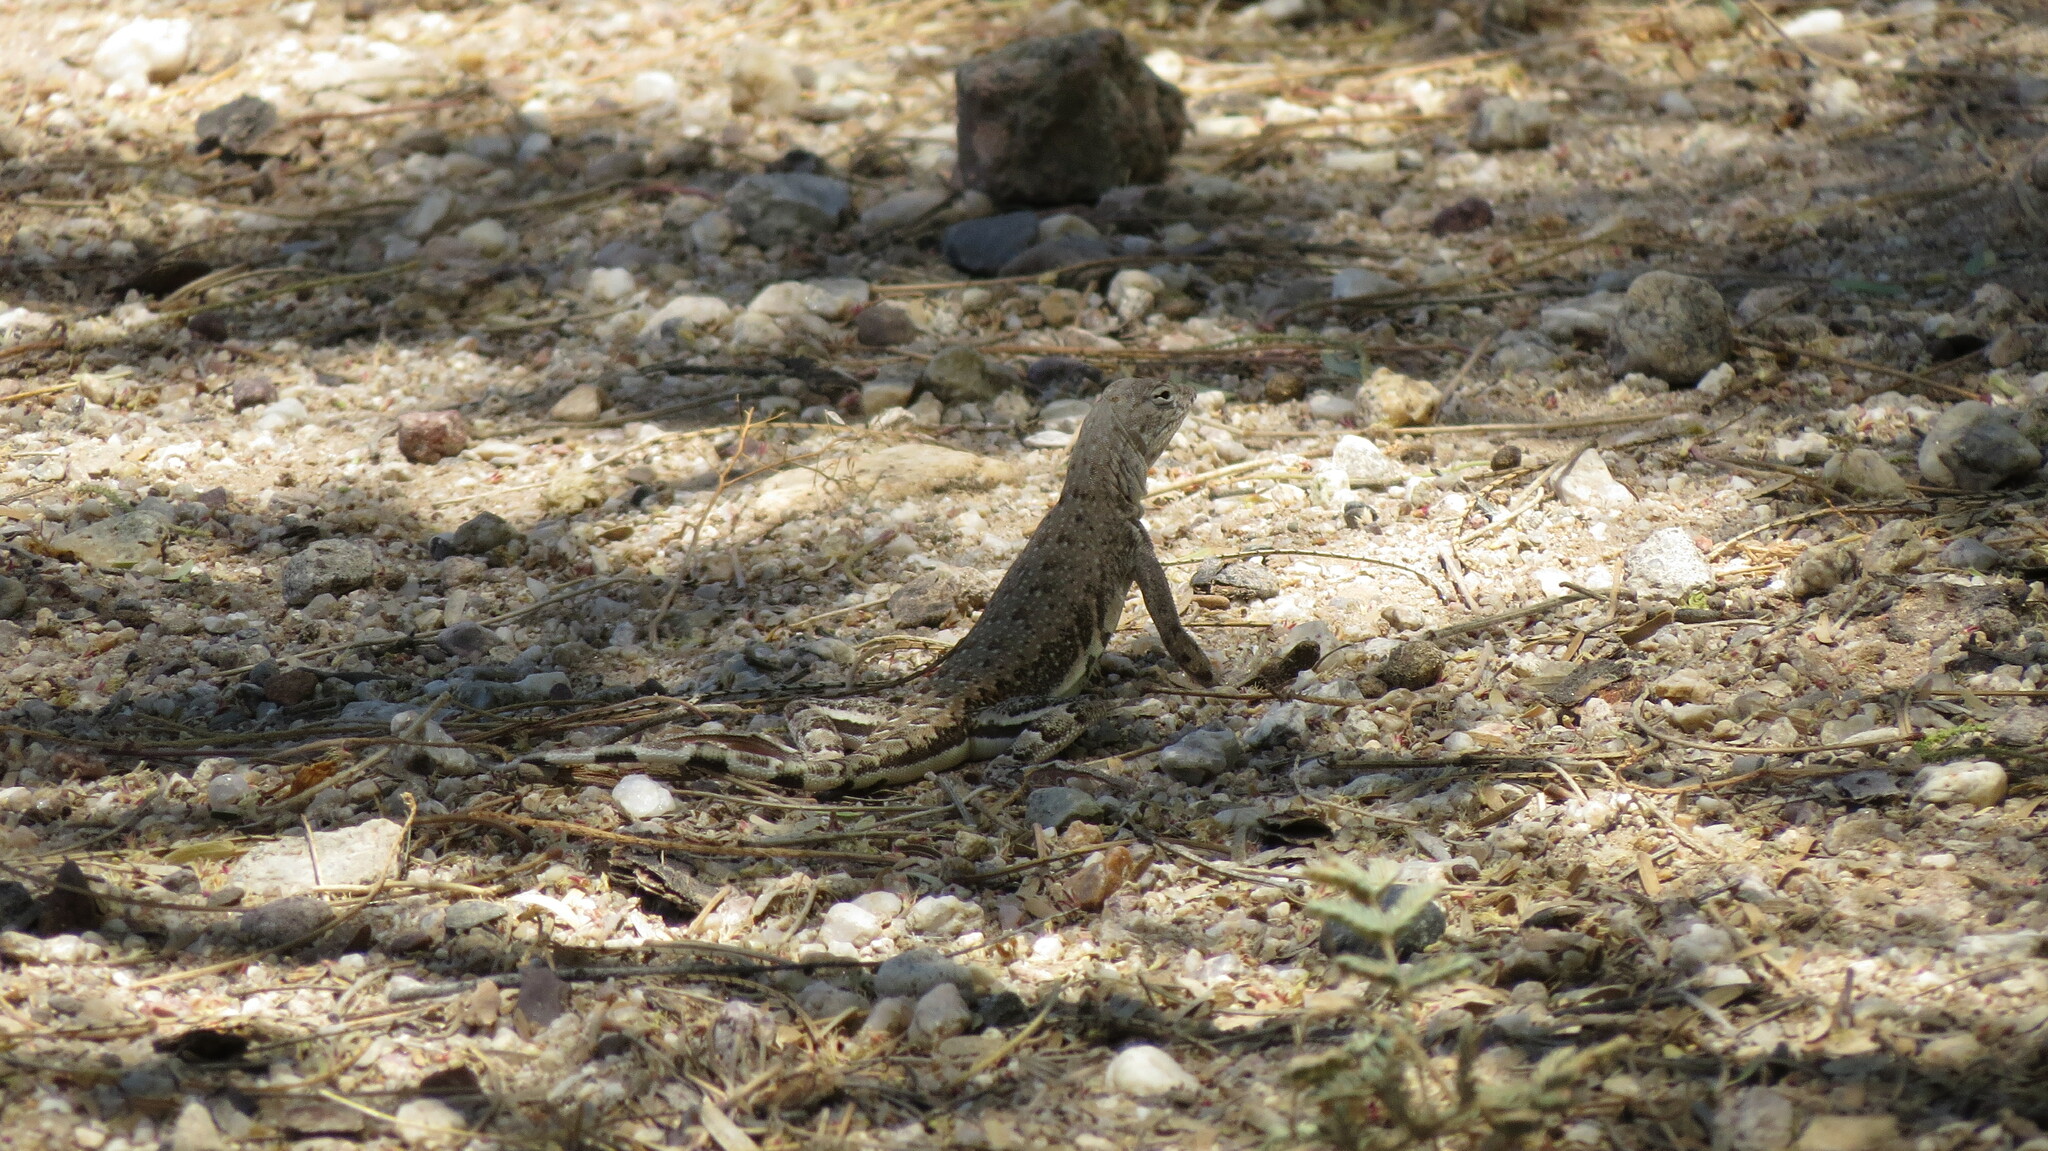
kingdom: Animalia
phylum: Chordata
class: Squamata
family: Phrynosomatidae
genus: Callisaurus
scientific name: Callisaurus draconoides
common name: Zebra-tailed lizard
